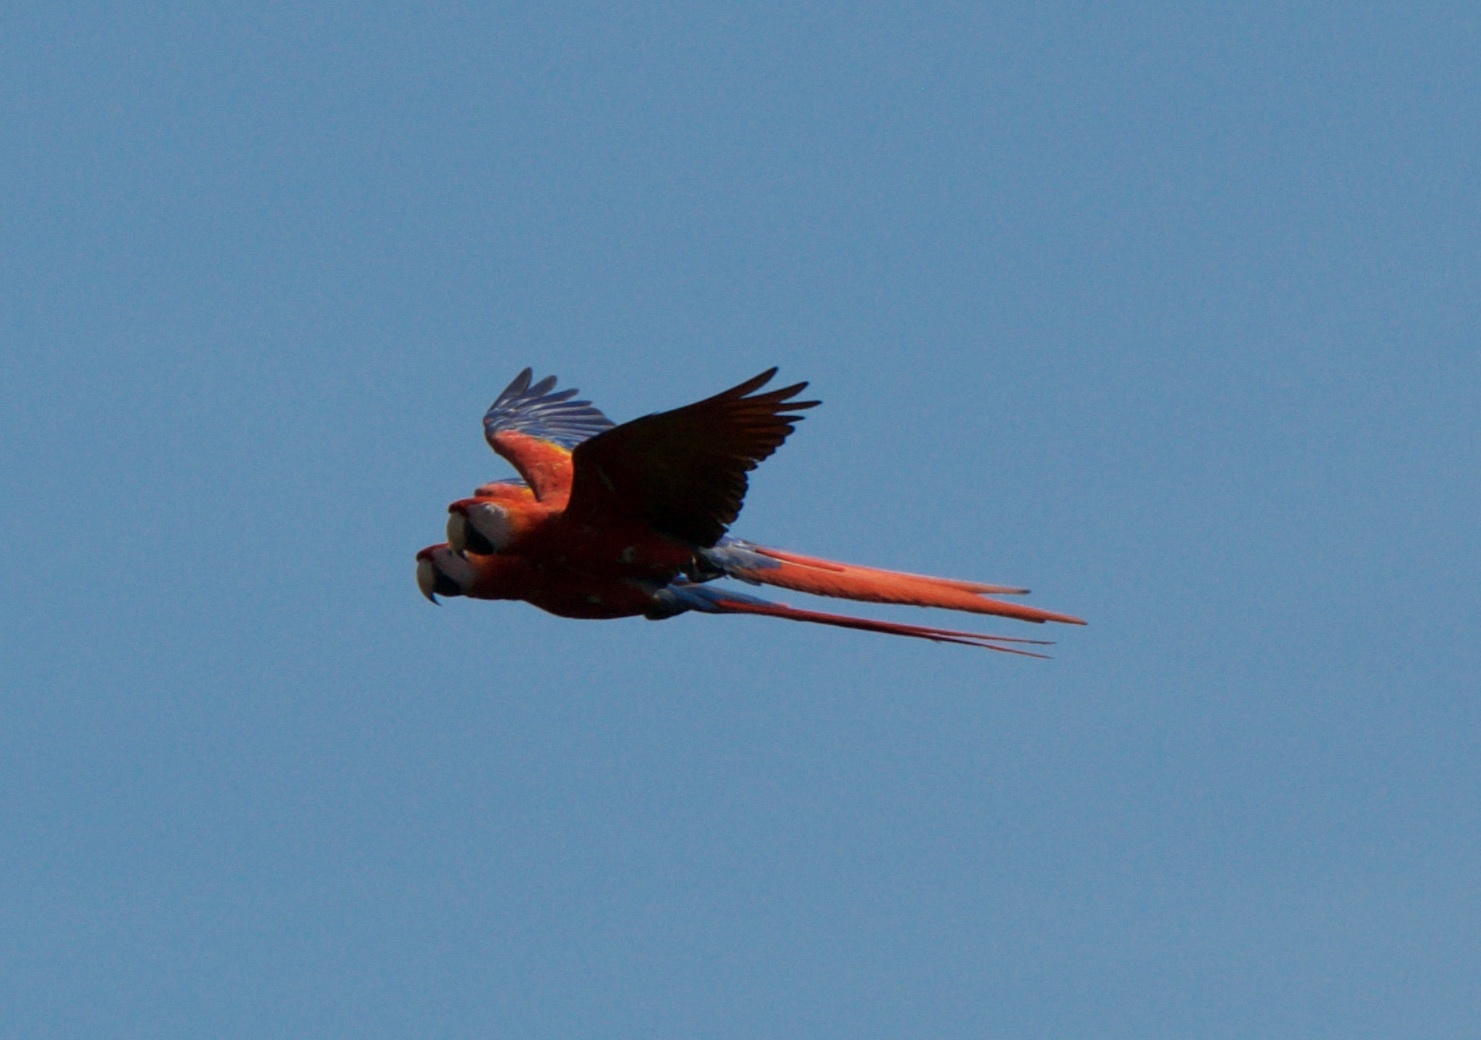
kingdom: Animalia
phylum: Chordata
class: Aves
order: Psittaciformes
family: Psittacidae
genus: Ara
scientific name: Ara macao
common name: Scarlet macaw
